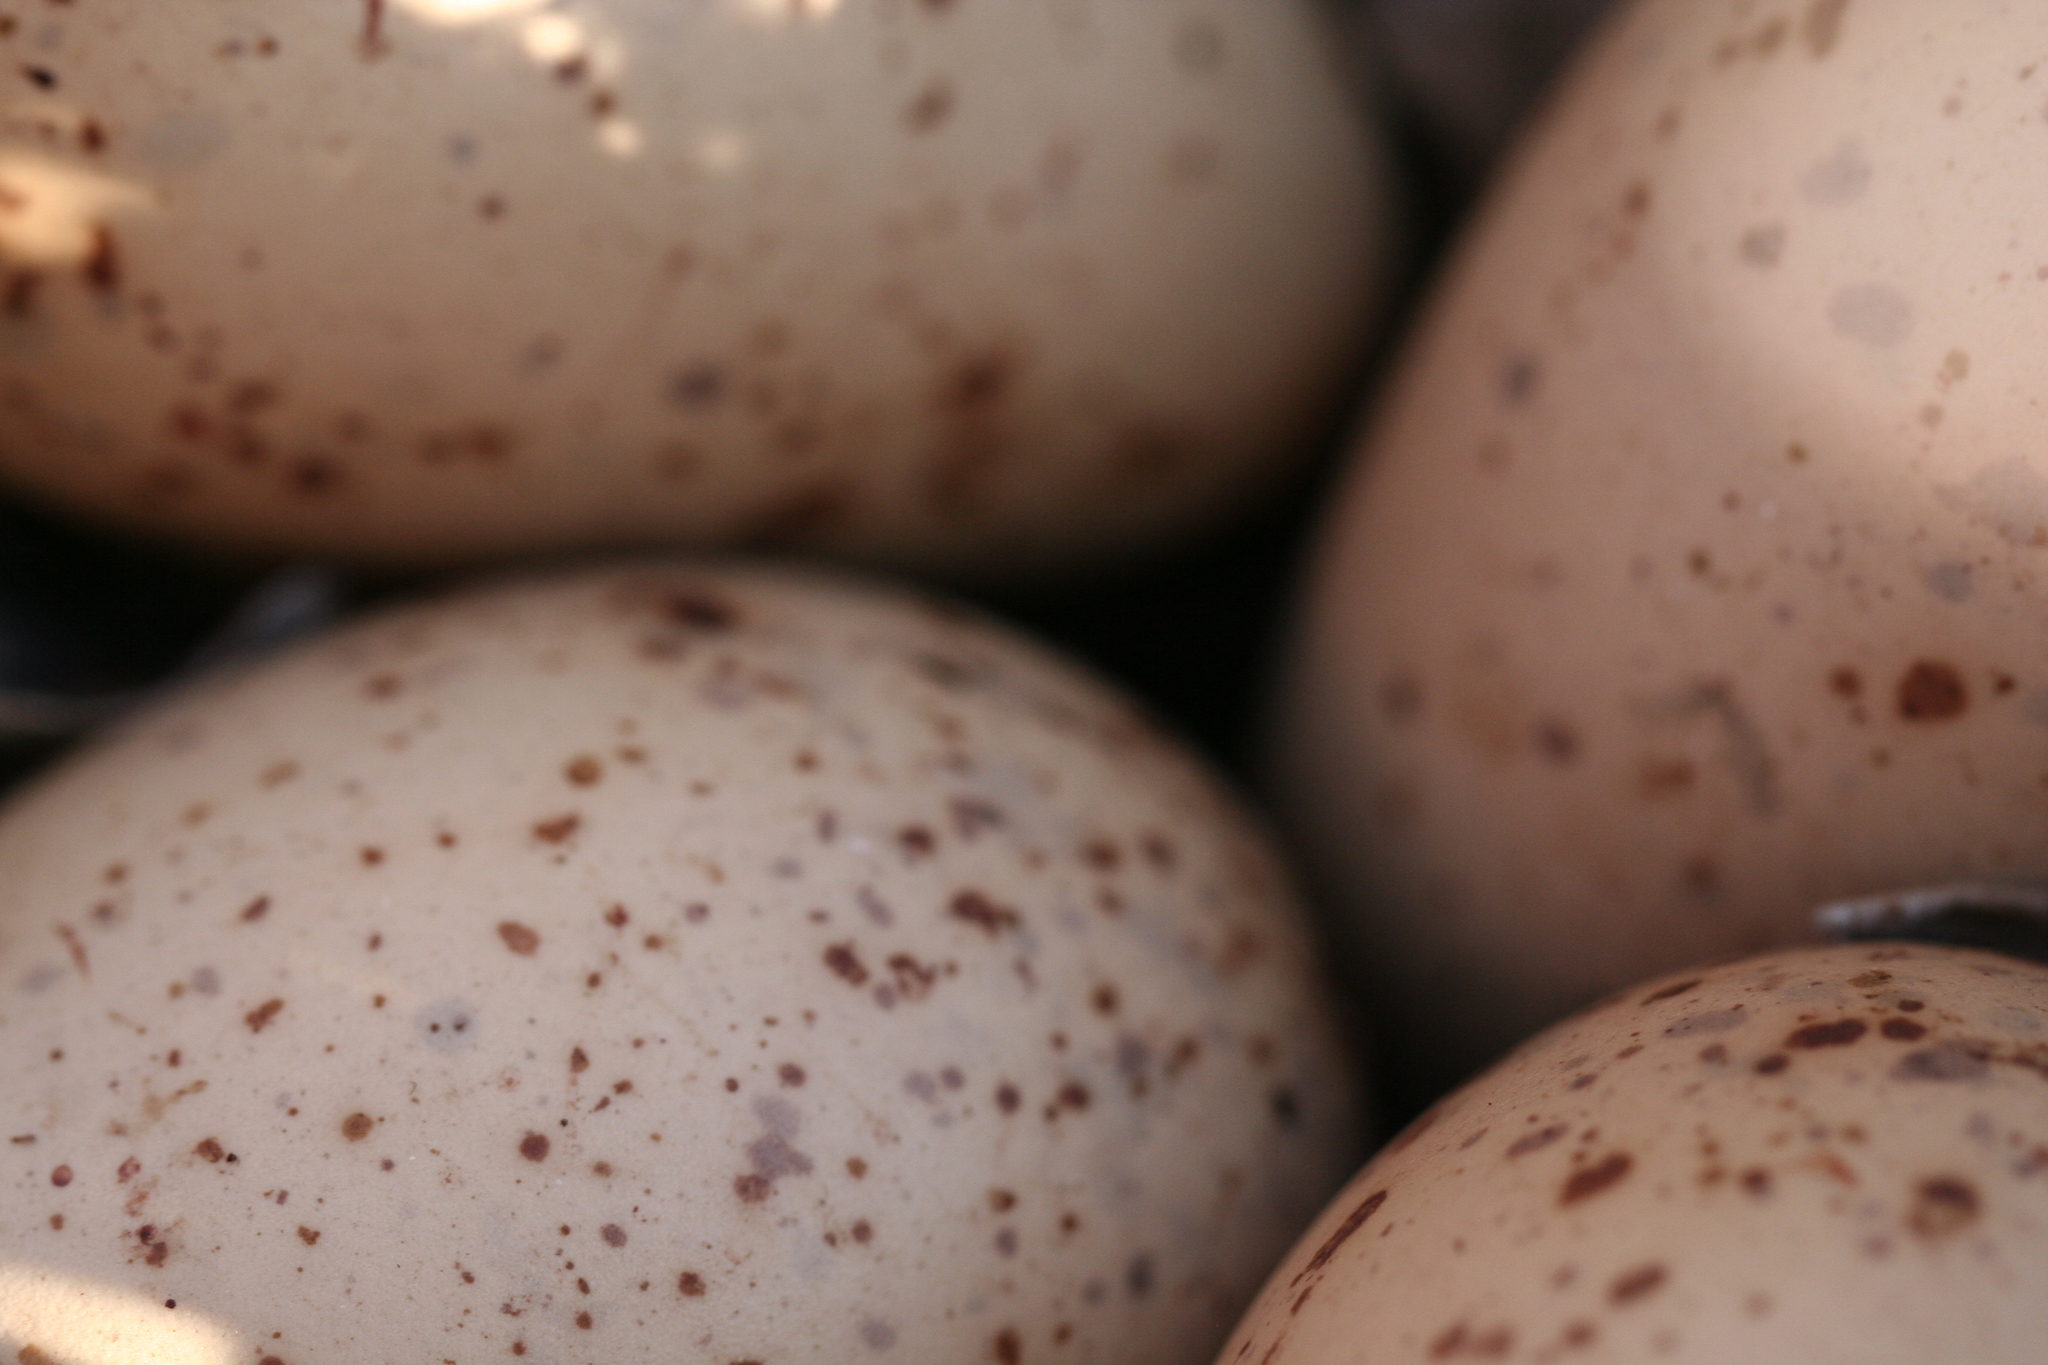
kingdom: Animalia
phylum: Chordata
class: Aves
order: Charadriiformes
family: Scolopacidae
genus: Bartramia
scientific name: Bartramia longicauda
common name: Upland sandpiper
